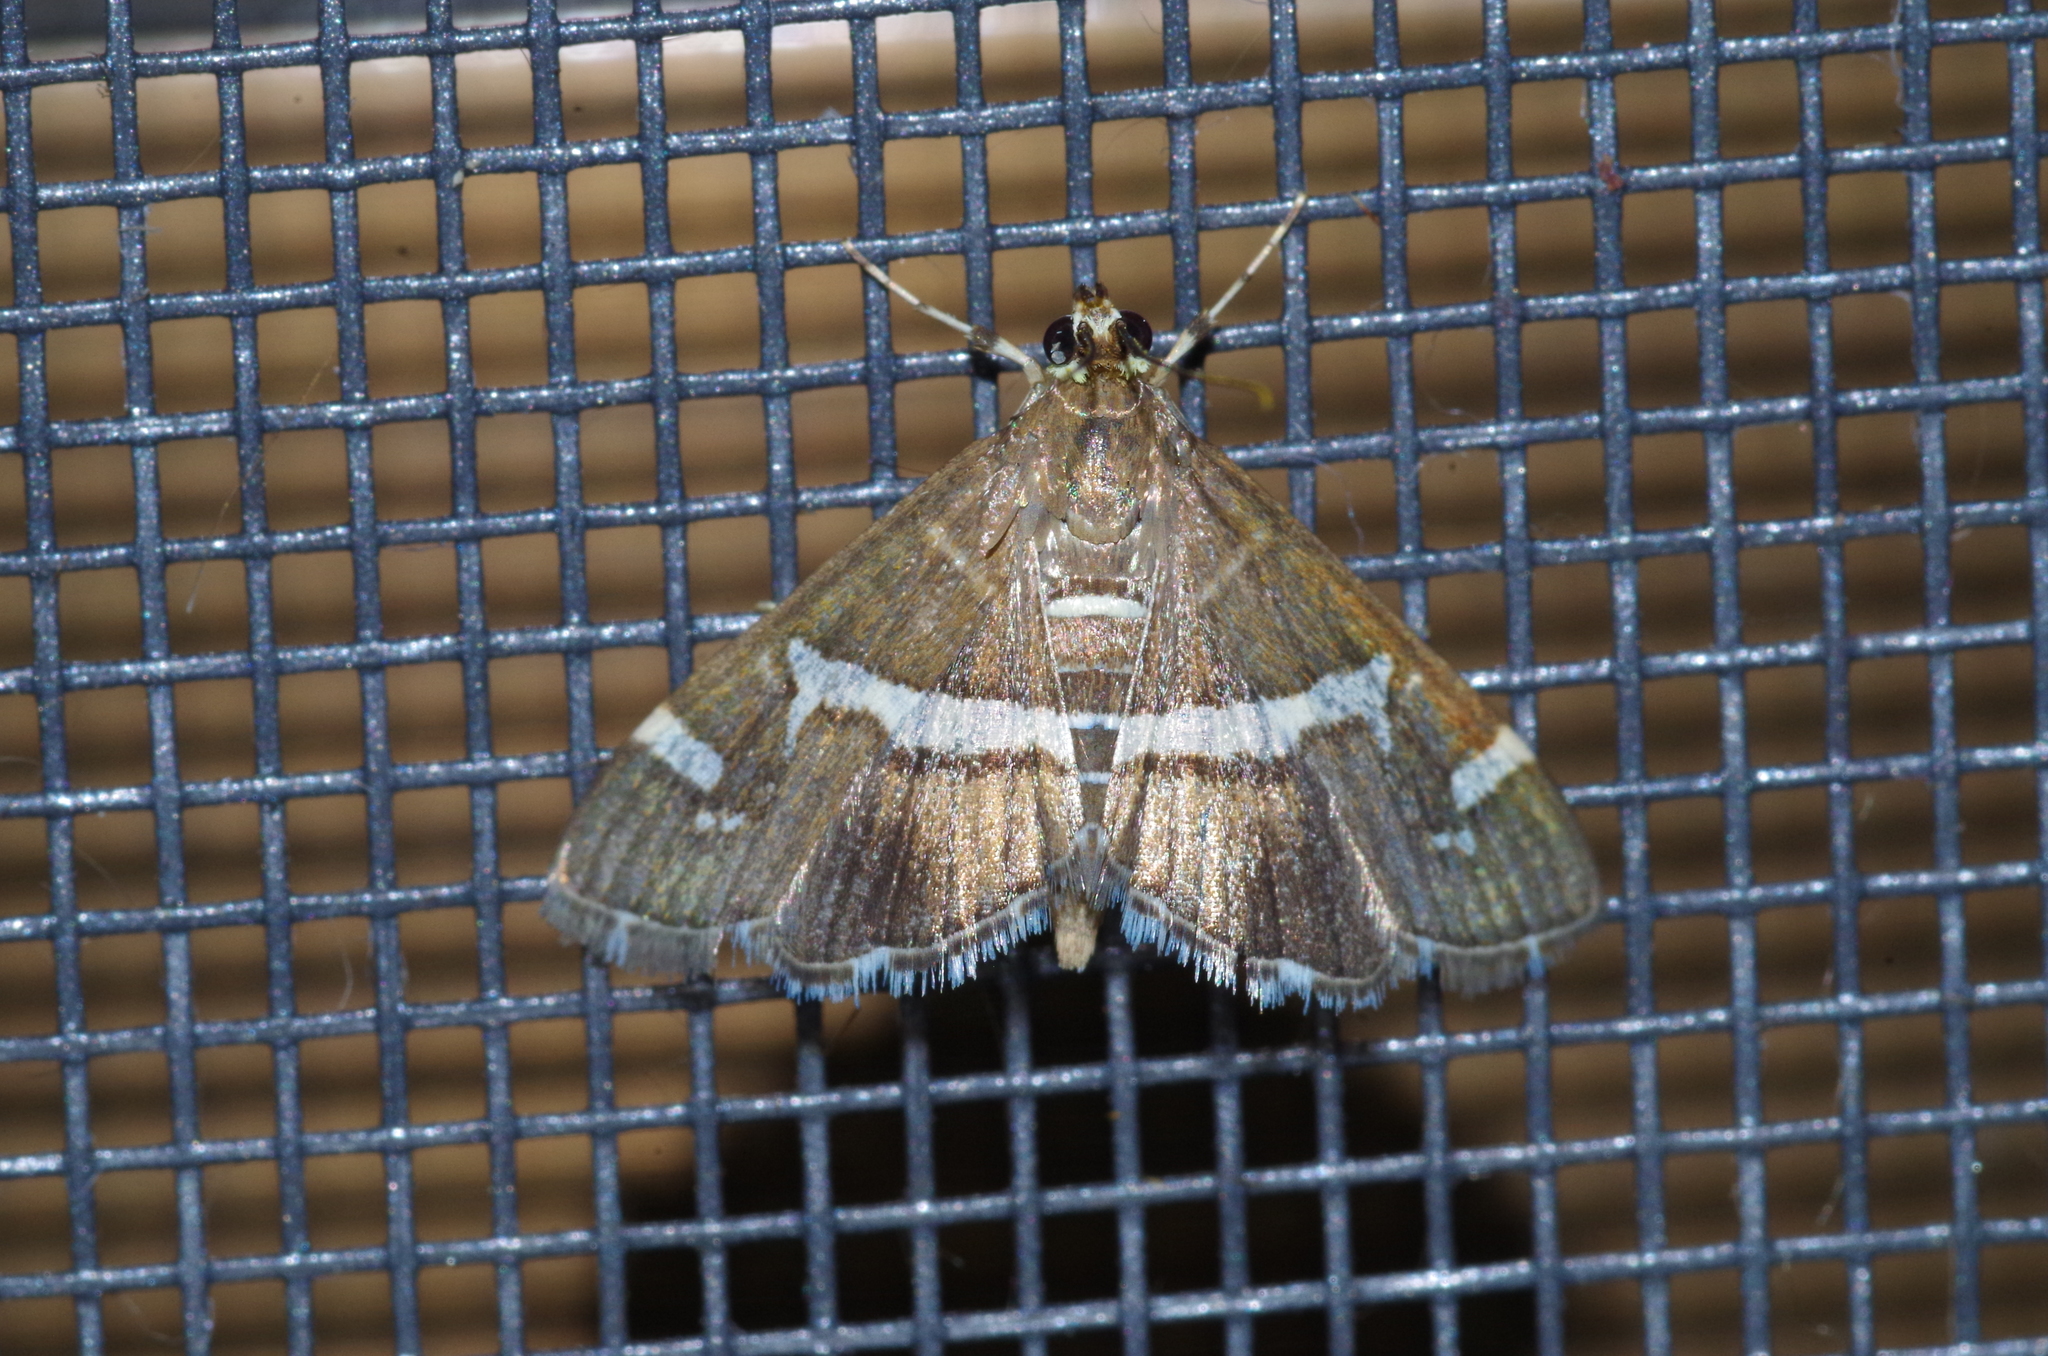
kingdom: Animalia
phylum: Arthropoda
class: Insecta
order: Lepidoptera
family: Crambidae
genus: Spoladea
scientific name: Spoladea recurvalis
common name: Beet webworm moth
